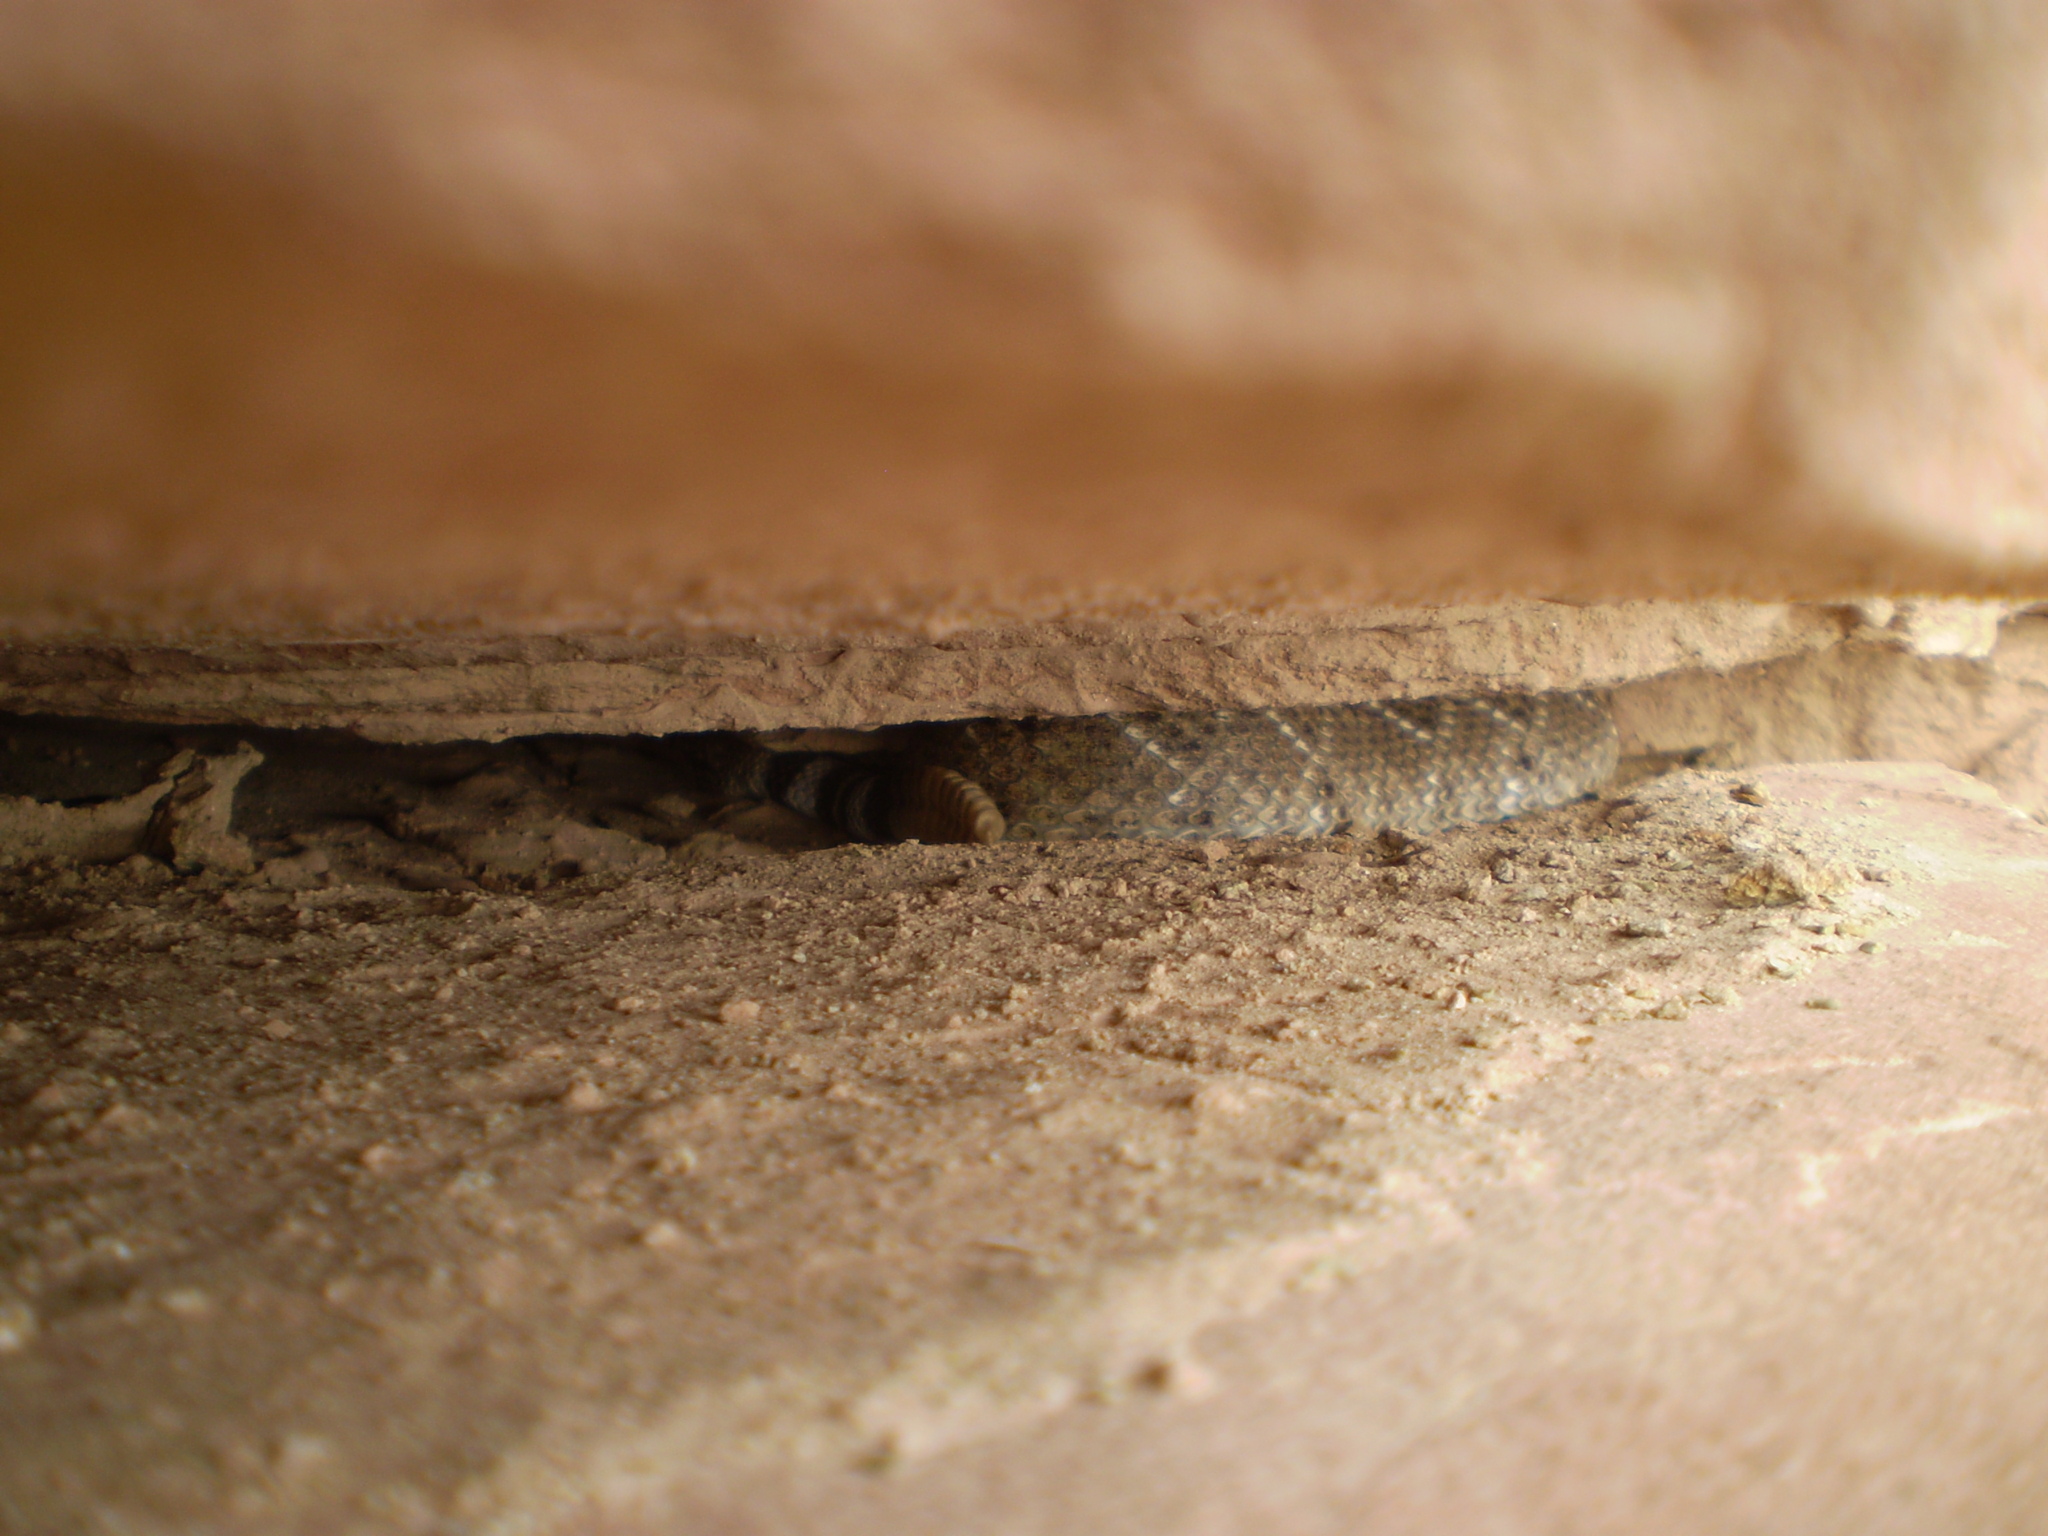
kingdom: Animalia
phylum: Chordata
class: Squamata
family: Viperidae
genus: Crotalus
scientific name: Crotalus atrox
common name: Western diamond-backed rattlesnake
